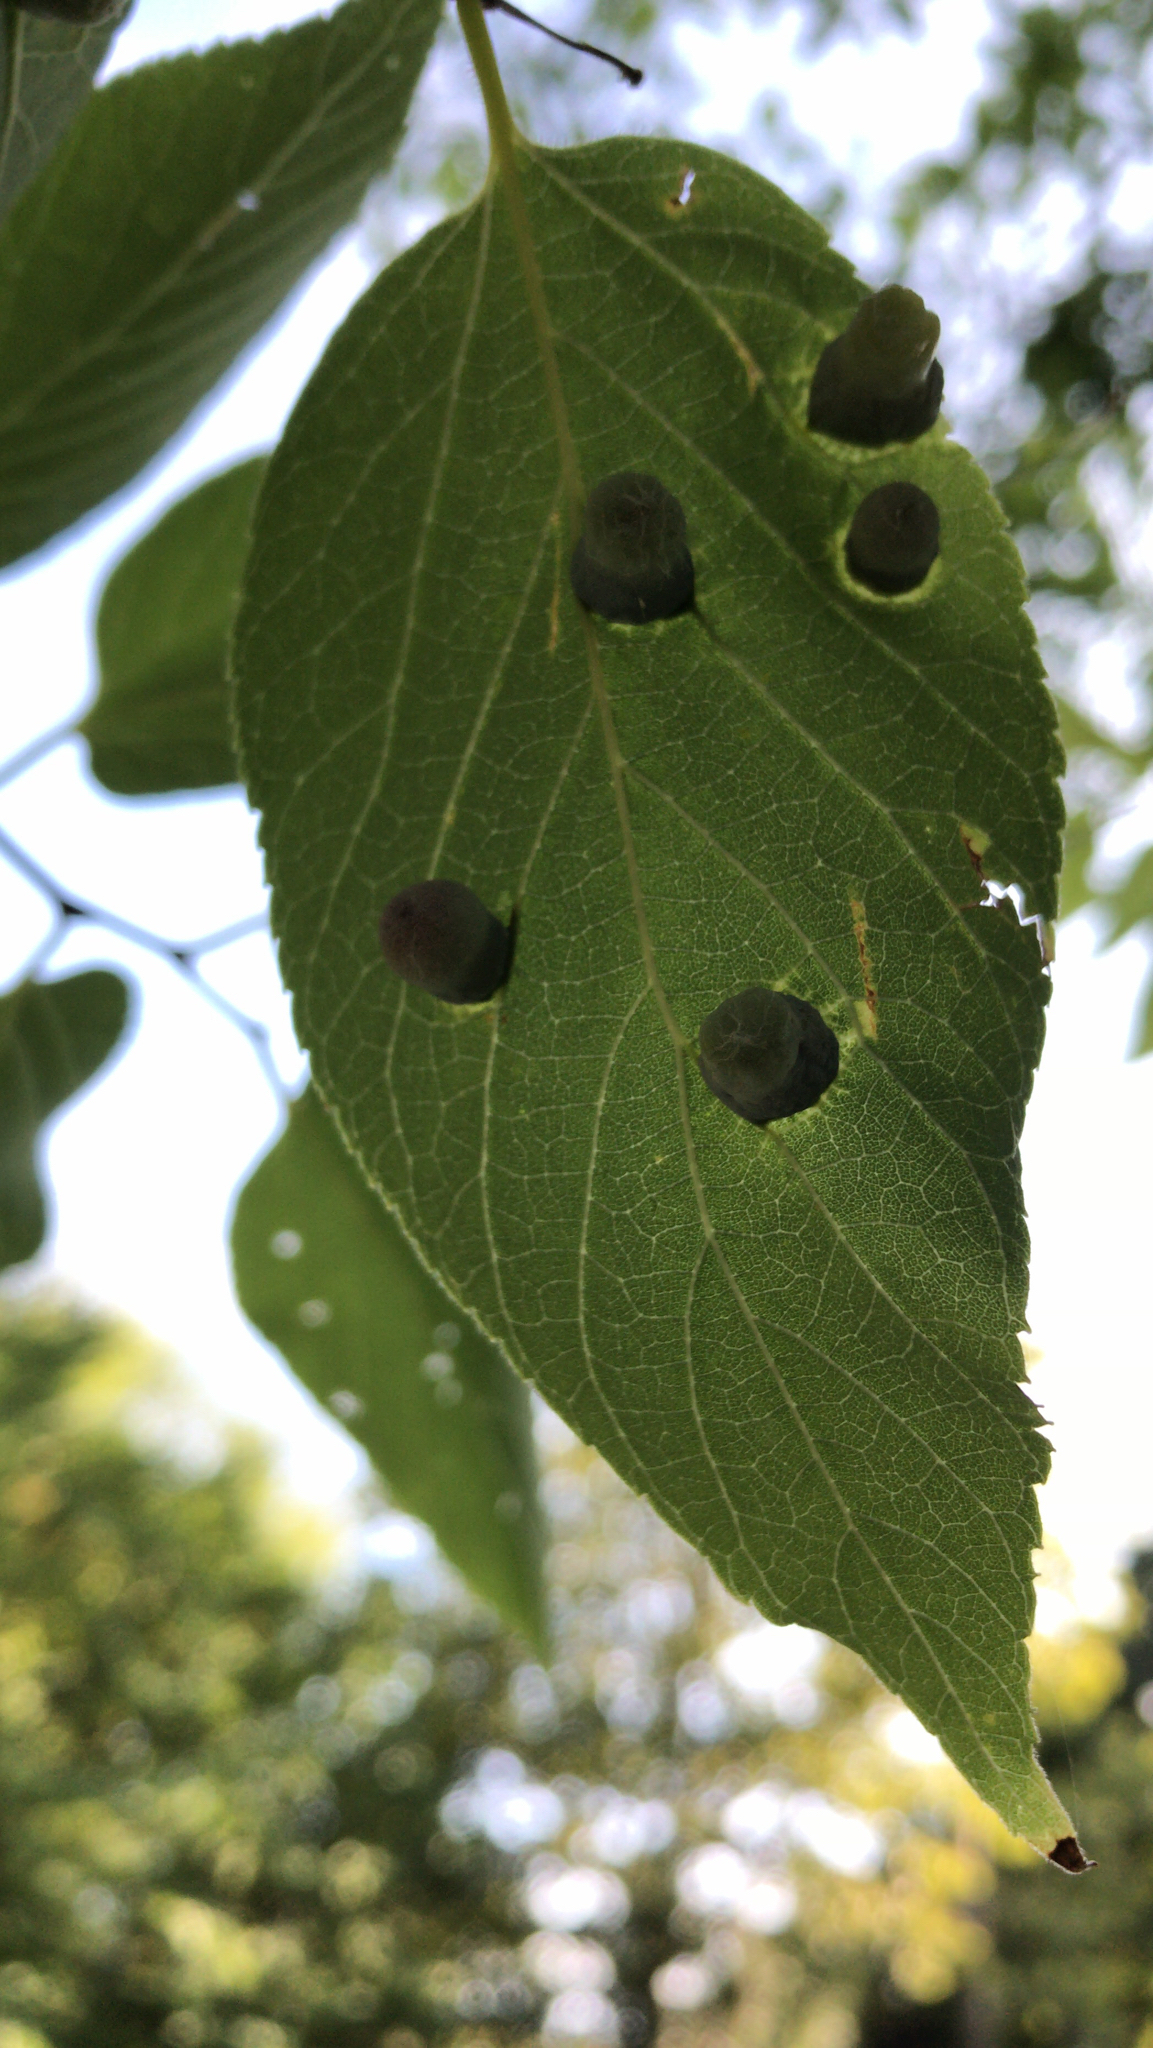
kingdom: Animalia
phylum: Arthropoda
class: Insecta
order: Hemiptera
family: Aphalaridae
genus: Pachypsylla
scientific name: Pachypsylla celtidismamma
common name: Hackberry nipplegall psyllid
